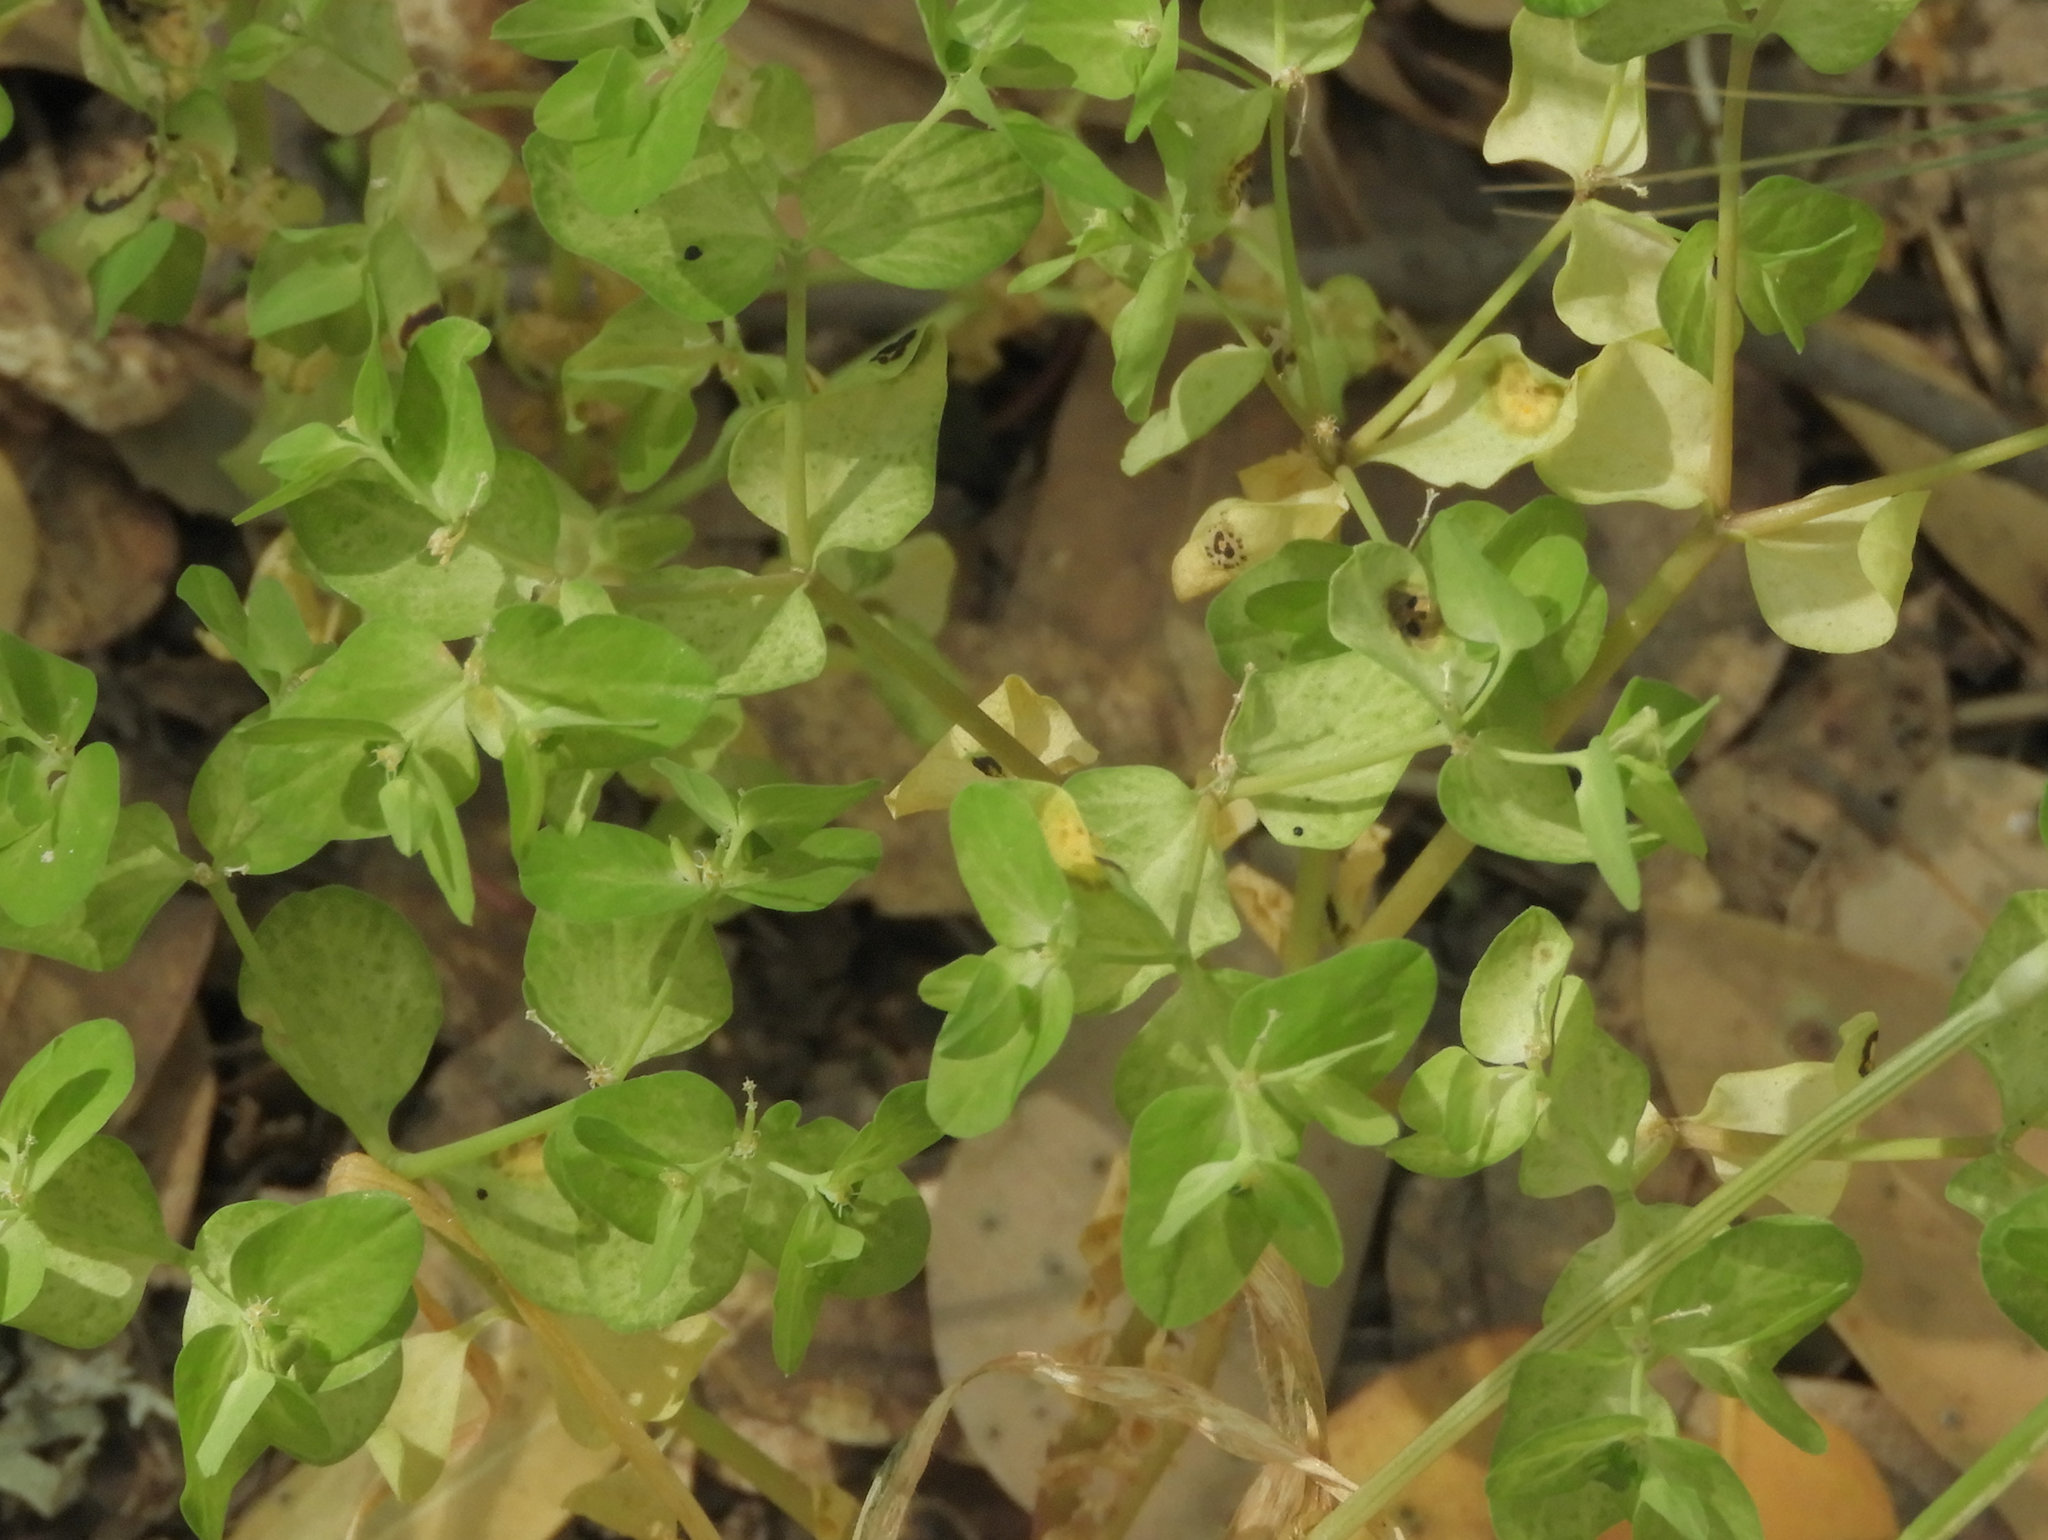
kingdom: Plantae
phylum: Tracheophyta
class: Magnoliopsida
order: Malpighiales
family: Euphorbiaceae
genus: Euphorbia
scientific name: Euphorbia peplus
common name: Petty spurge
